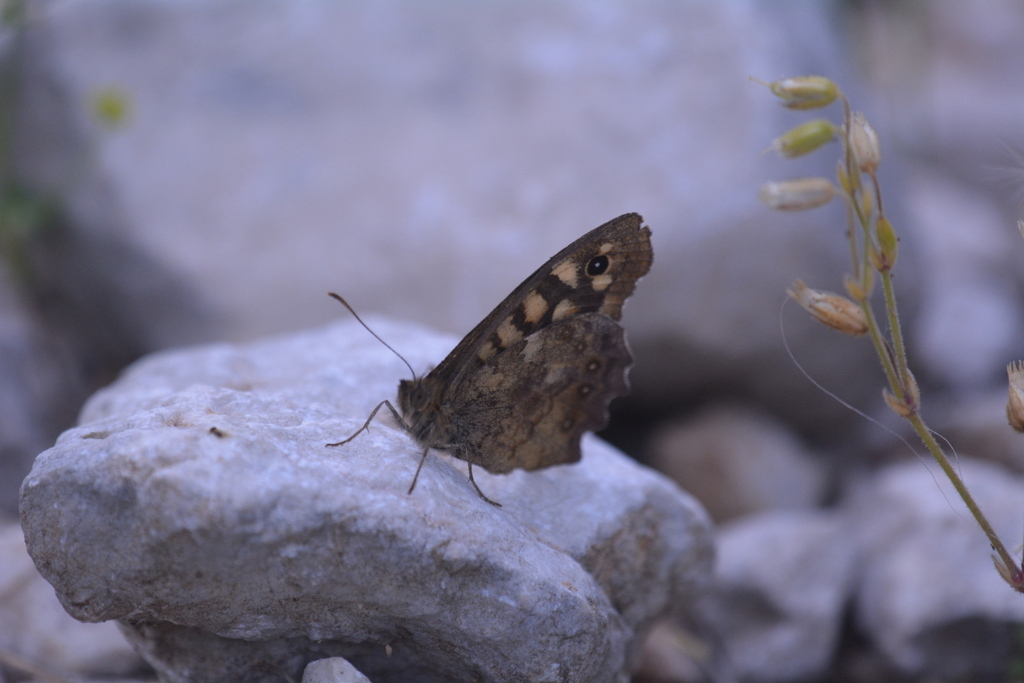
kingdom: Animalia
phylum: Arthropoda
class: Insecta
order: Lepidoptera
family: Nymphalidae
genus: Pararge
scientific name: Pararge aegeria
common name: Speckled wood
